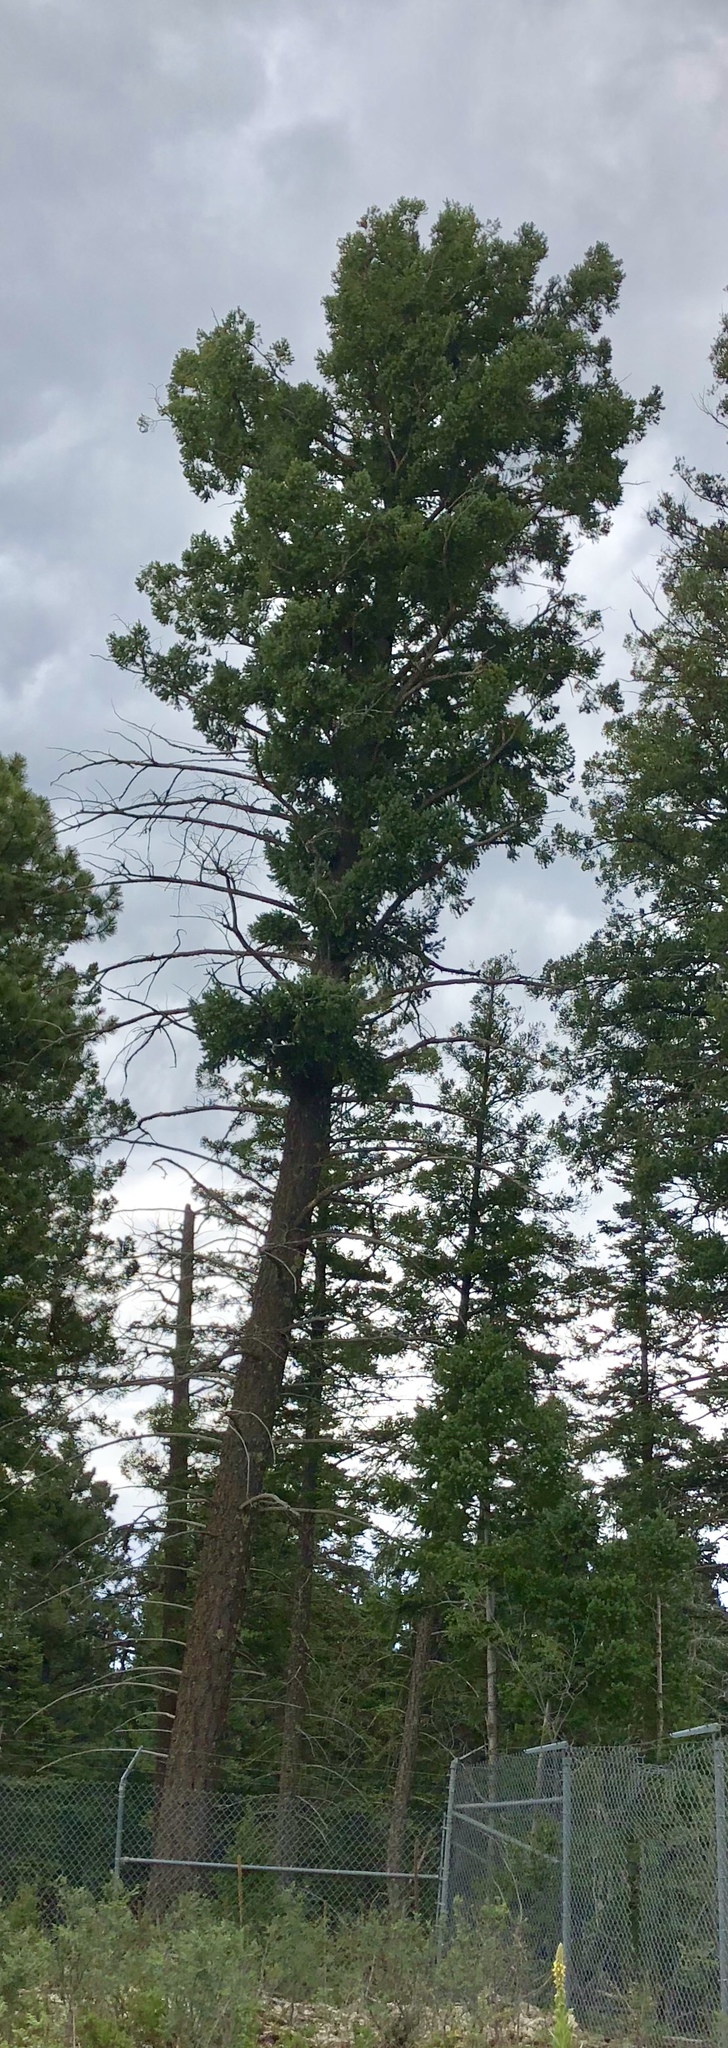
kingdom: Plantae
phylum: Tracheophyta
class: Pinopsida
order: Pinales
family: Pinaceae
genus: Pseudotsuga
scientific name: Pseudotsuga menziesii
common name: Douglas fir
